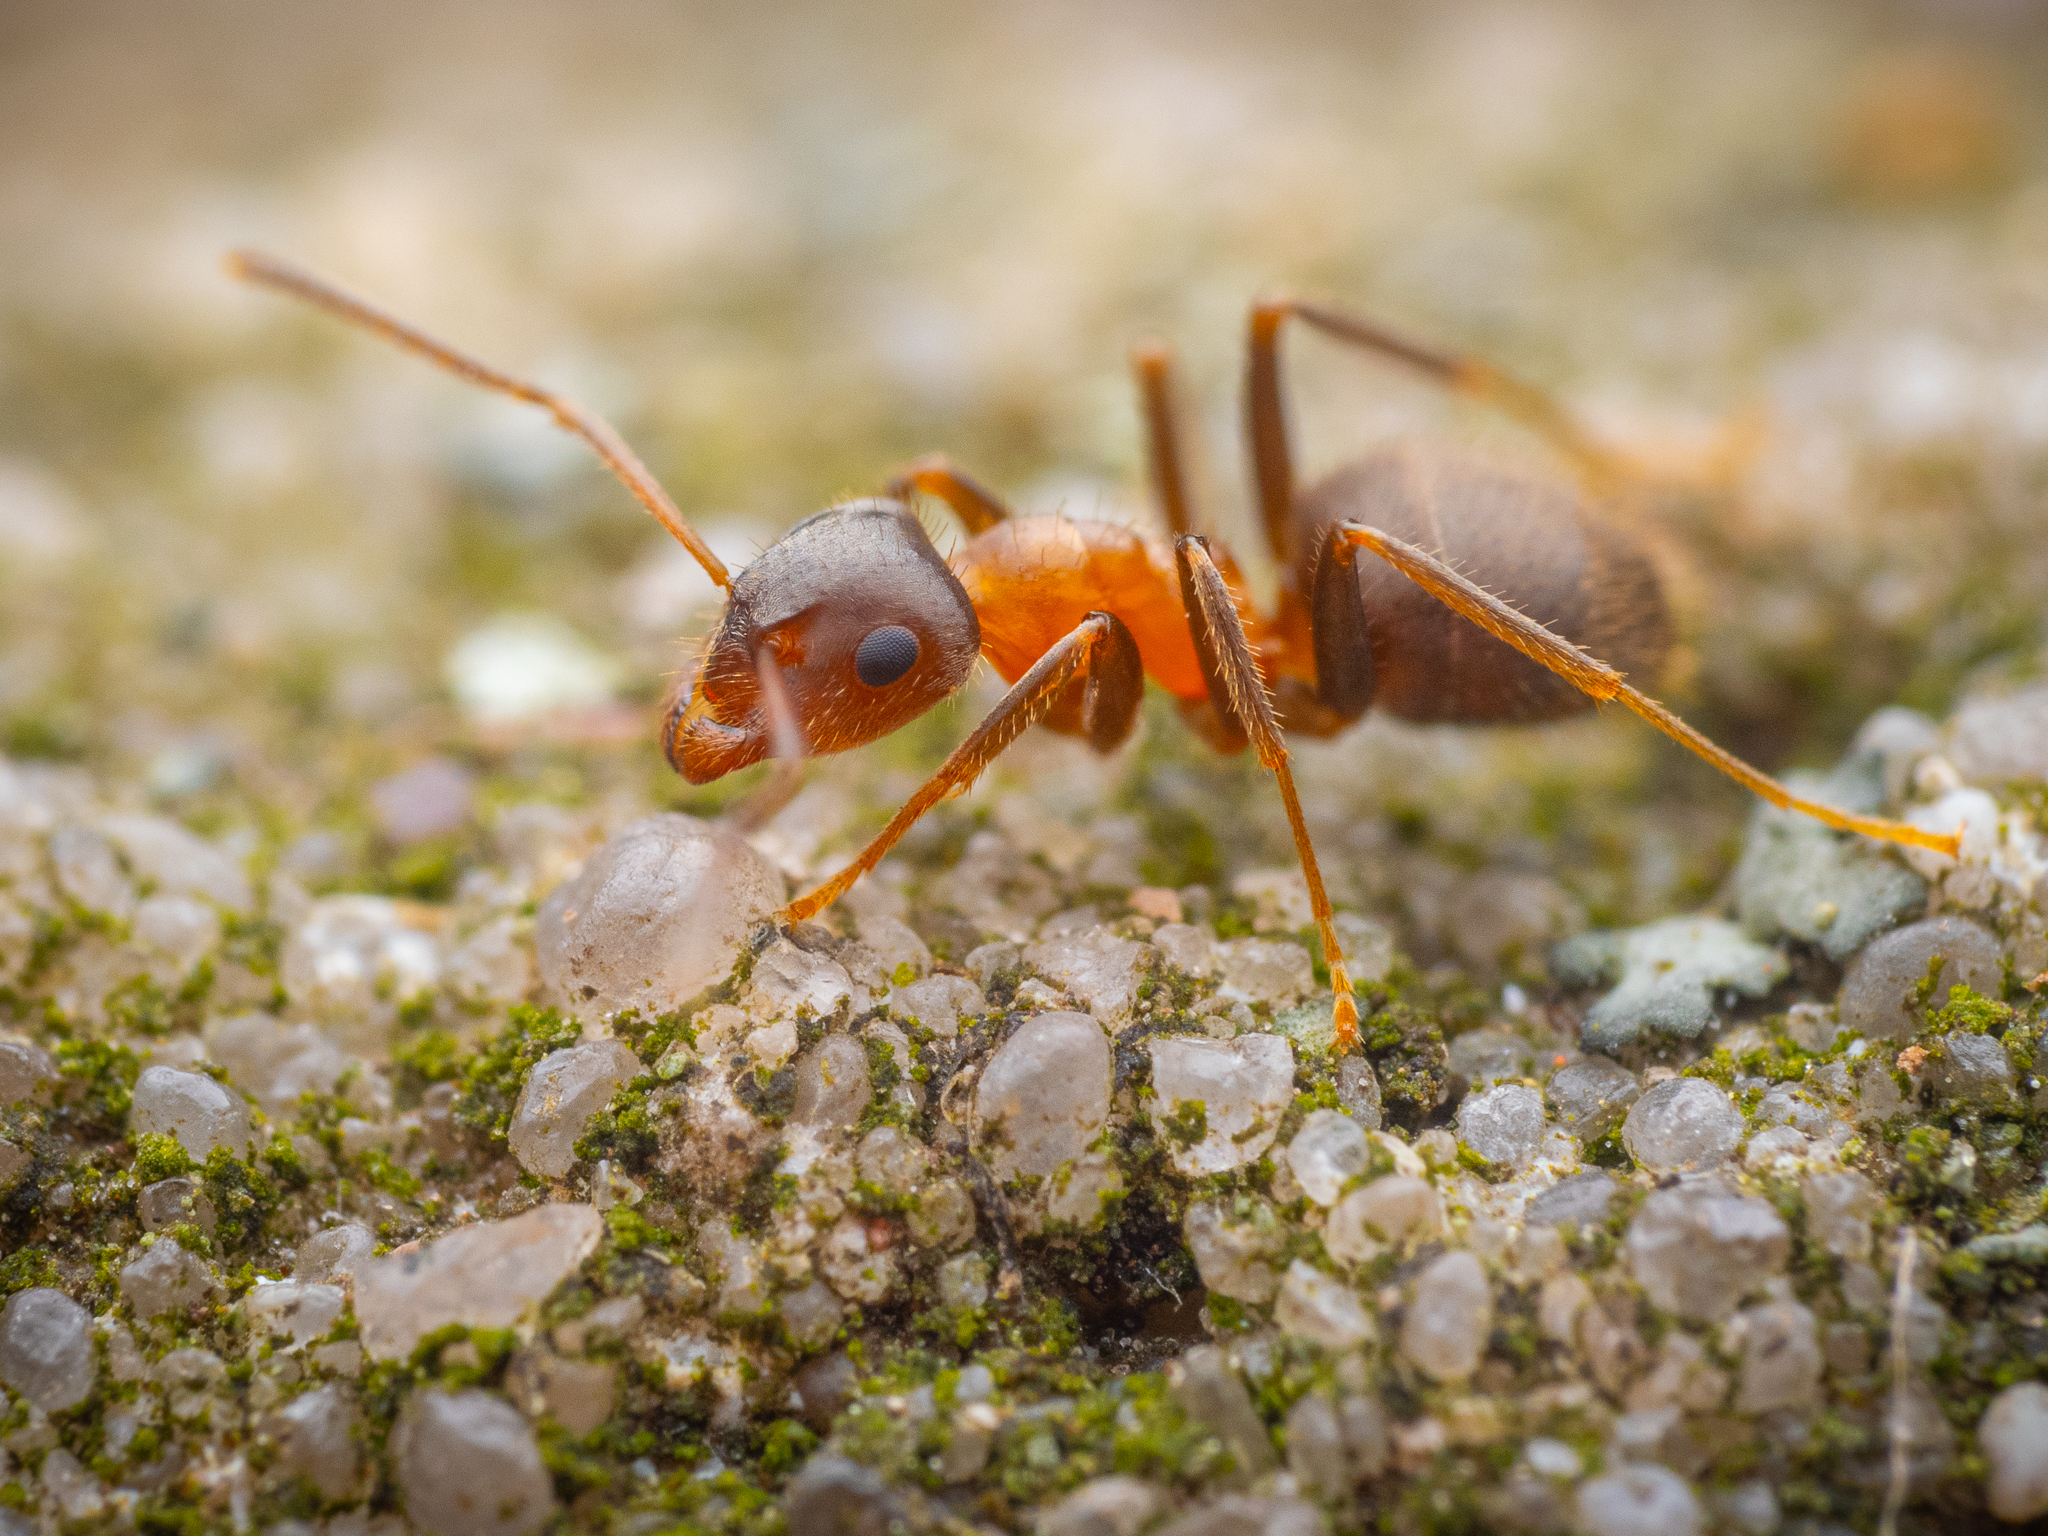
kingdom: Animalia
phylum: Arthropoda
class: Insecta
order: Hymenoptera
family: Formicidae
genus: Lasius
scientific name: Lasius emarginatus
